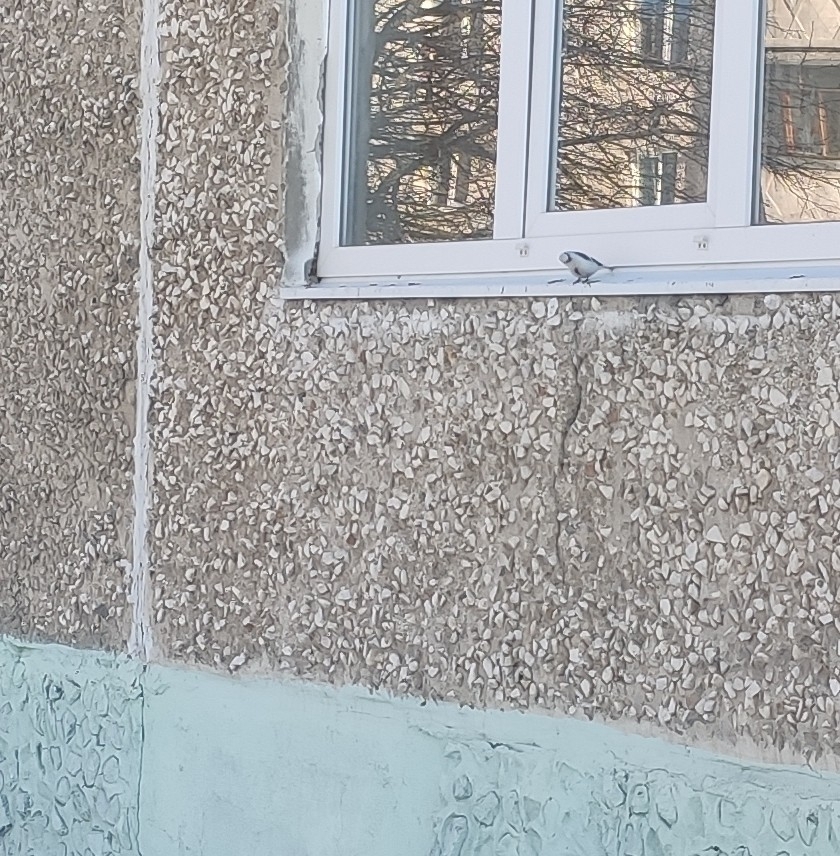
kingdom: Animalia
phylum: Chordata
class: Aves
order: Passeriformes
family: Paridae
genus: Cyanistes
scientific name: Cyanistes cyanus
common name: Azure tit
